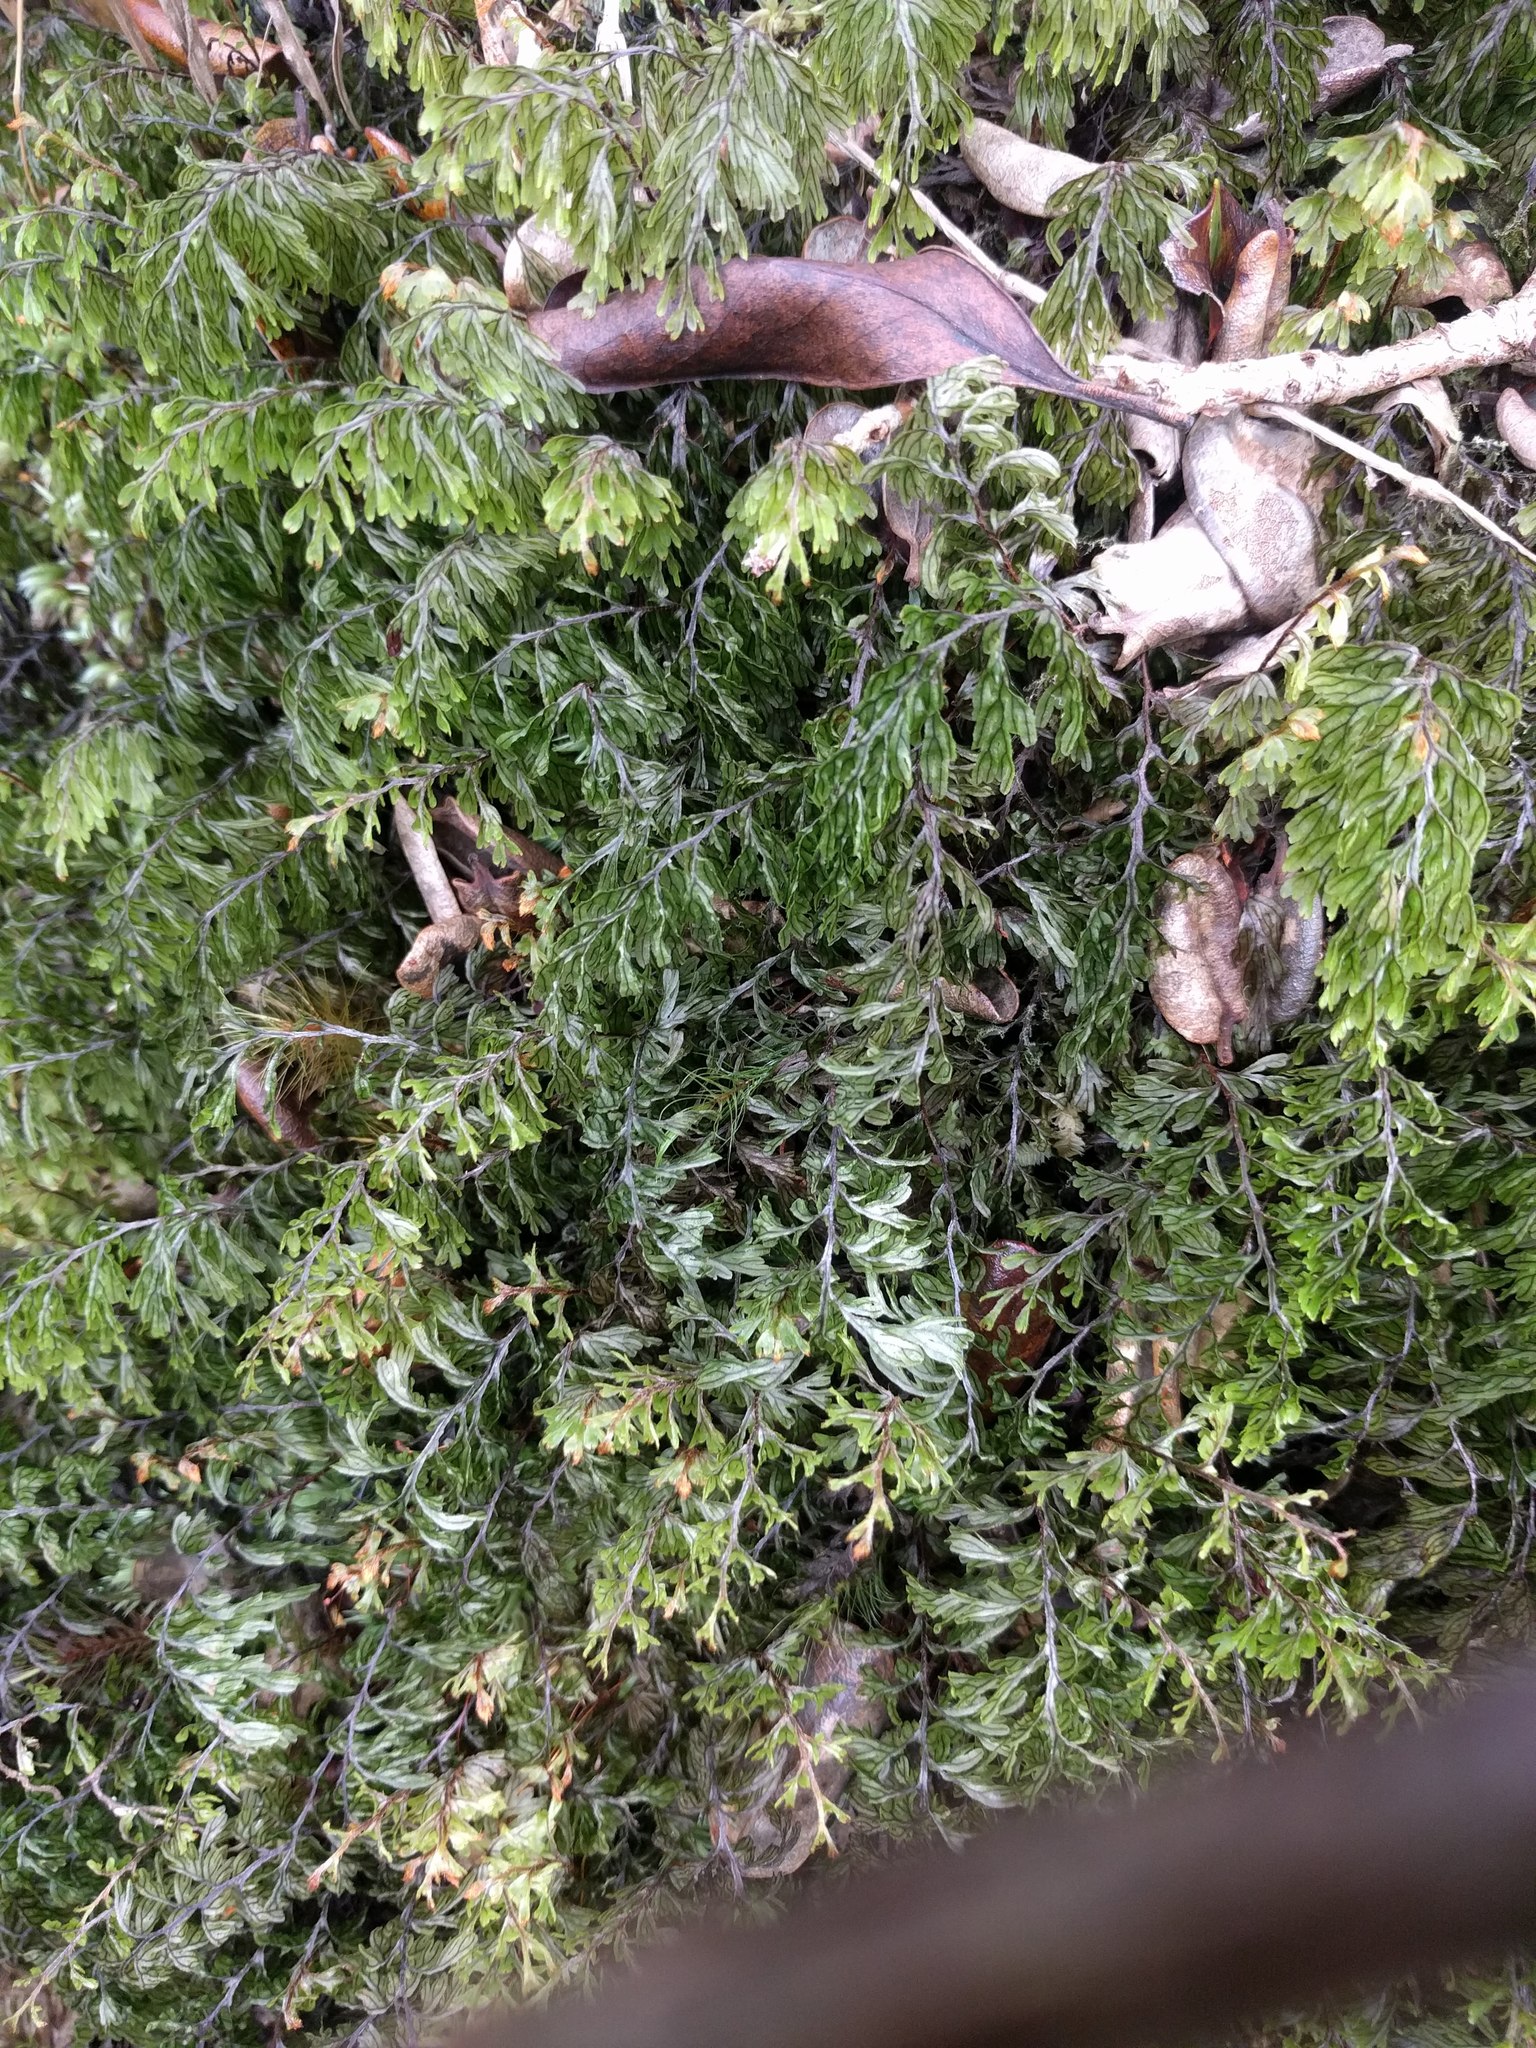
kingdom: Plantae
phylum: Tracheophyta
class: Polypodiopsida
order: Hymenophyllales
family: Hymenophyllaceae
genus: Hymenophyllum
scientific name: Hymenophyllum lanceolatum
